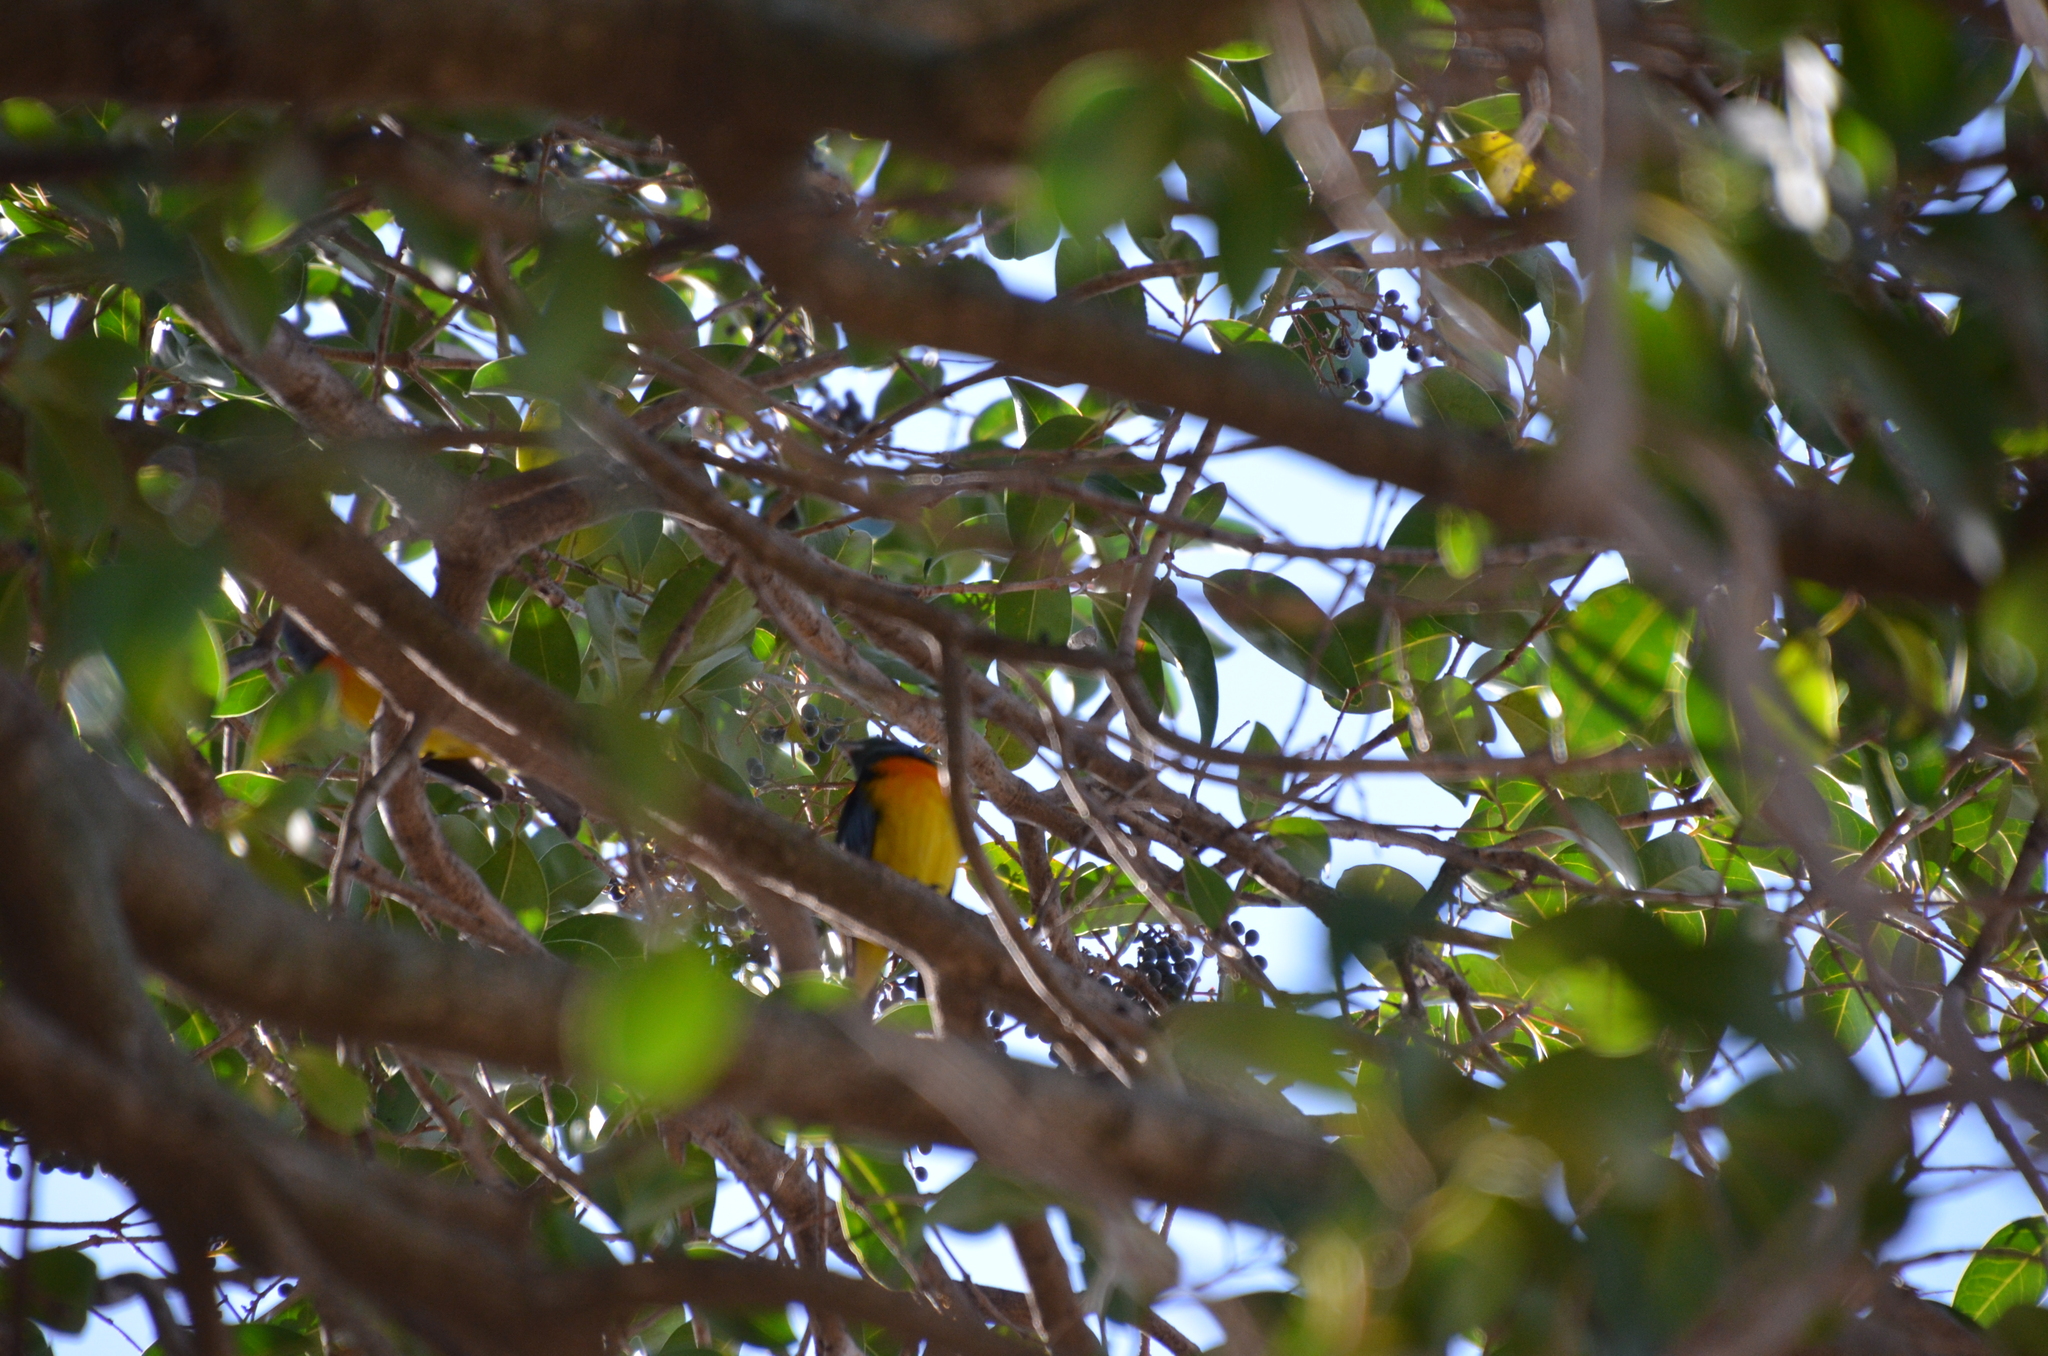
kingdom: Animalia
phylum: Chordata
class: Aves
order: Passeriformes
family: Thraupidae
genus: Rauenia
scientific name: Rauenia bonariensis
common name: Blue-and-yellow tanager
